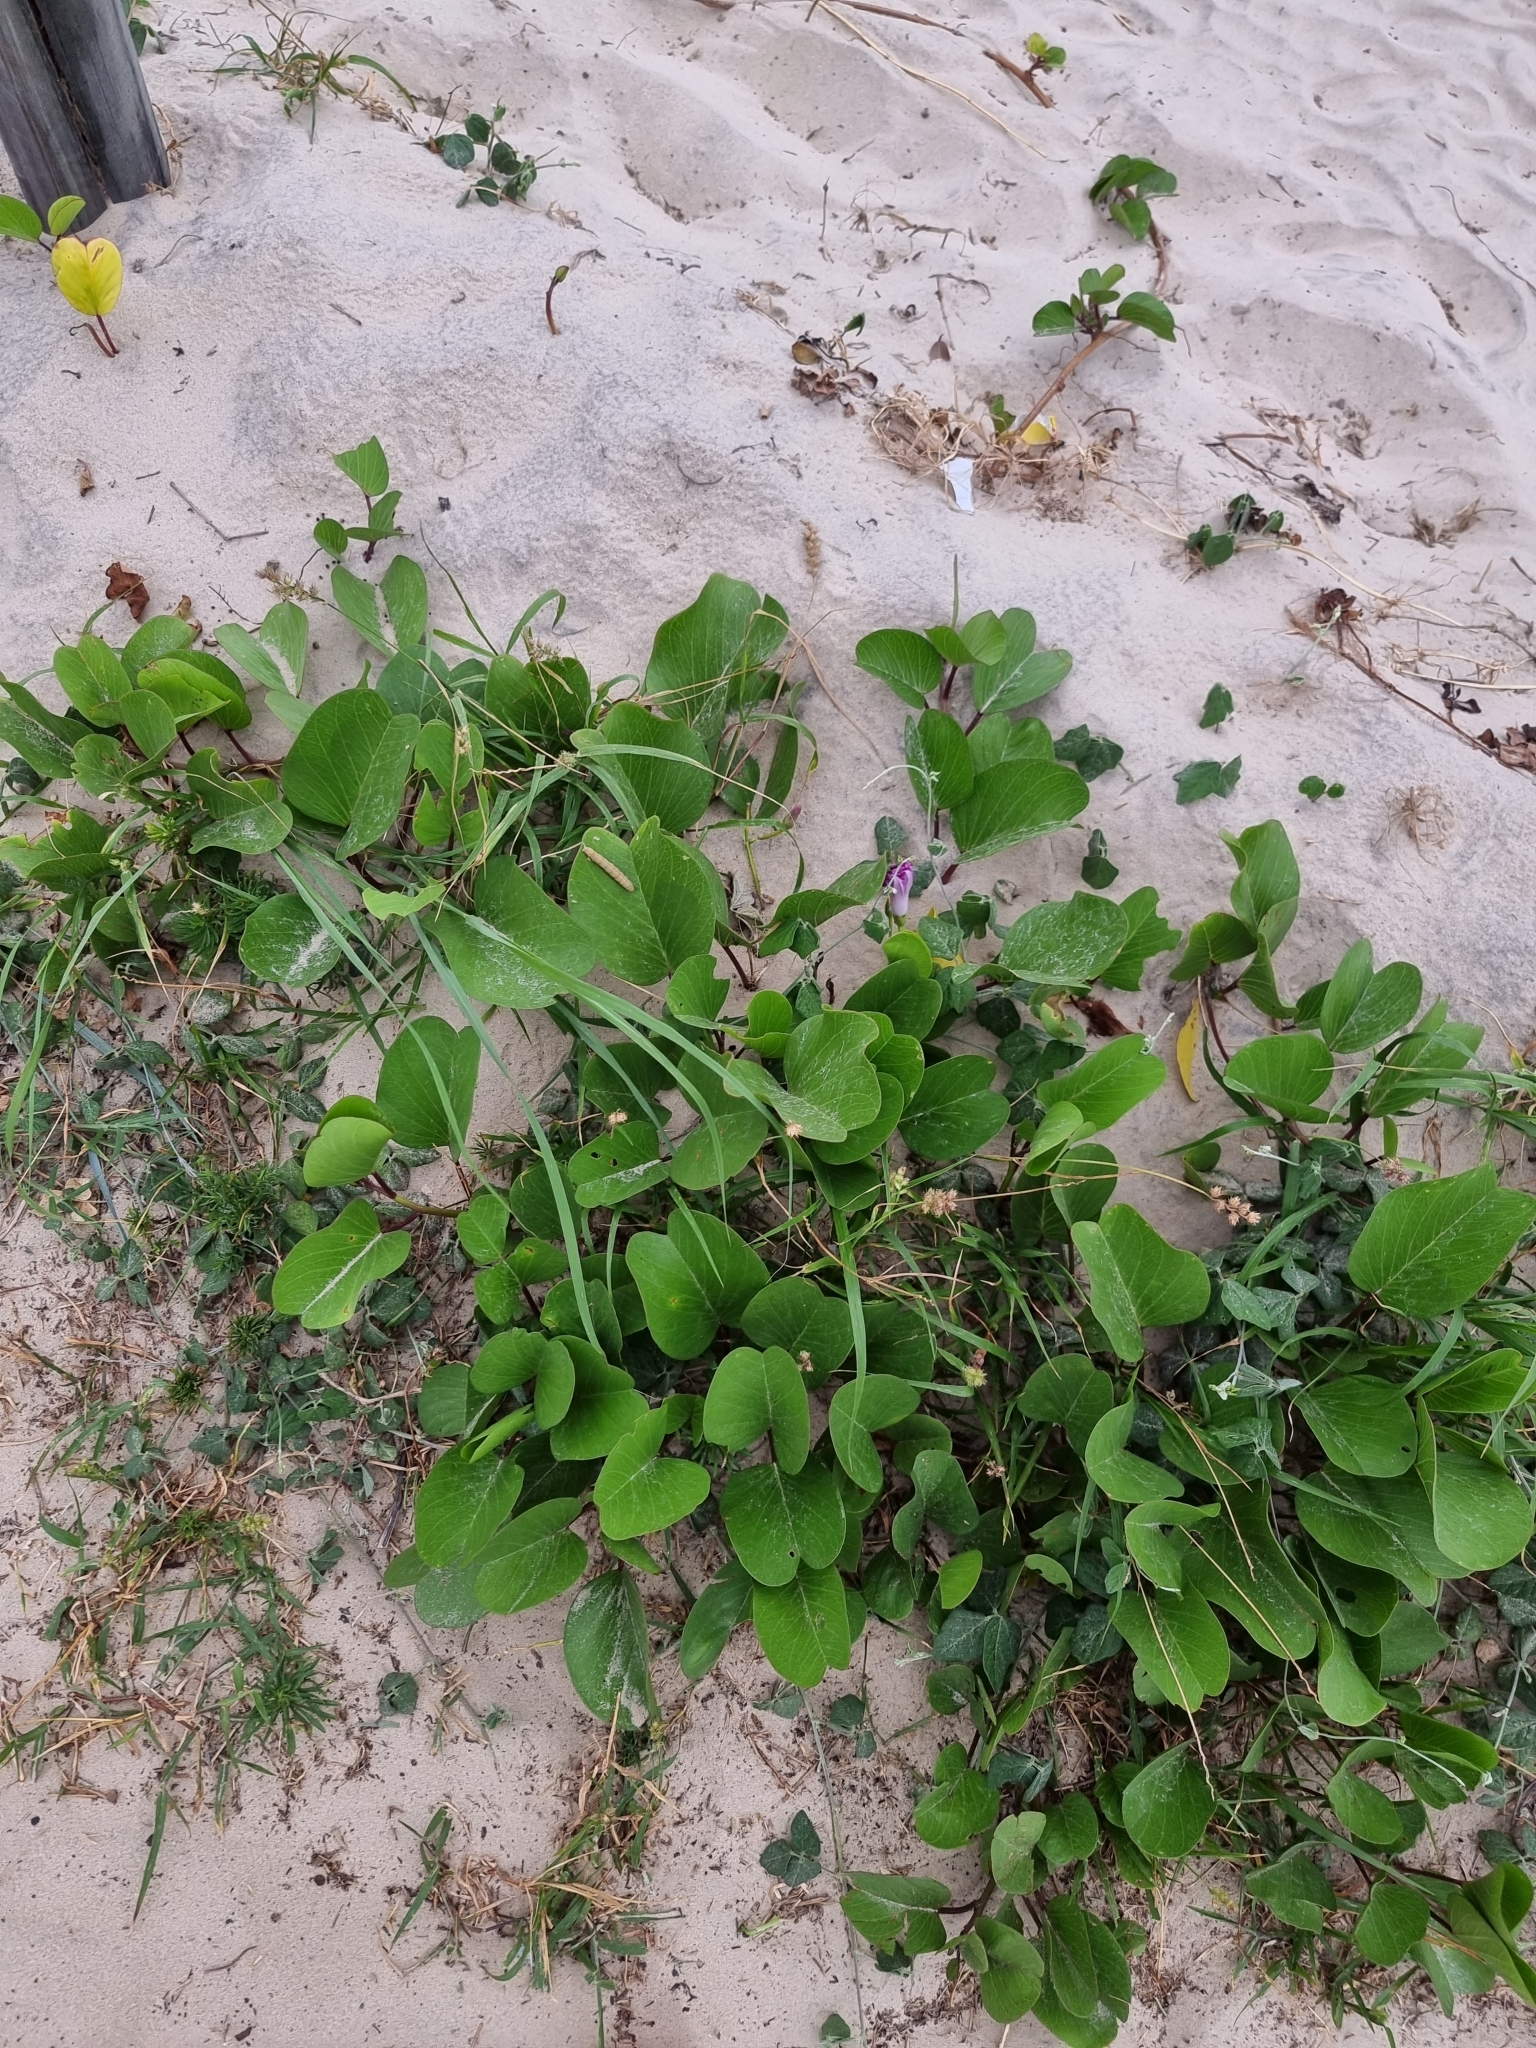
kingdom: Plantae
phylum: Tracheophyta
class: Magnoliopsida
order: Solanales
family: Convolvulaceae
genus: Ipomoea
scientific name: Ipomoea pes-caprae
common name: Beach morning glory
